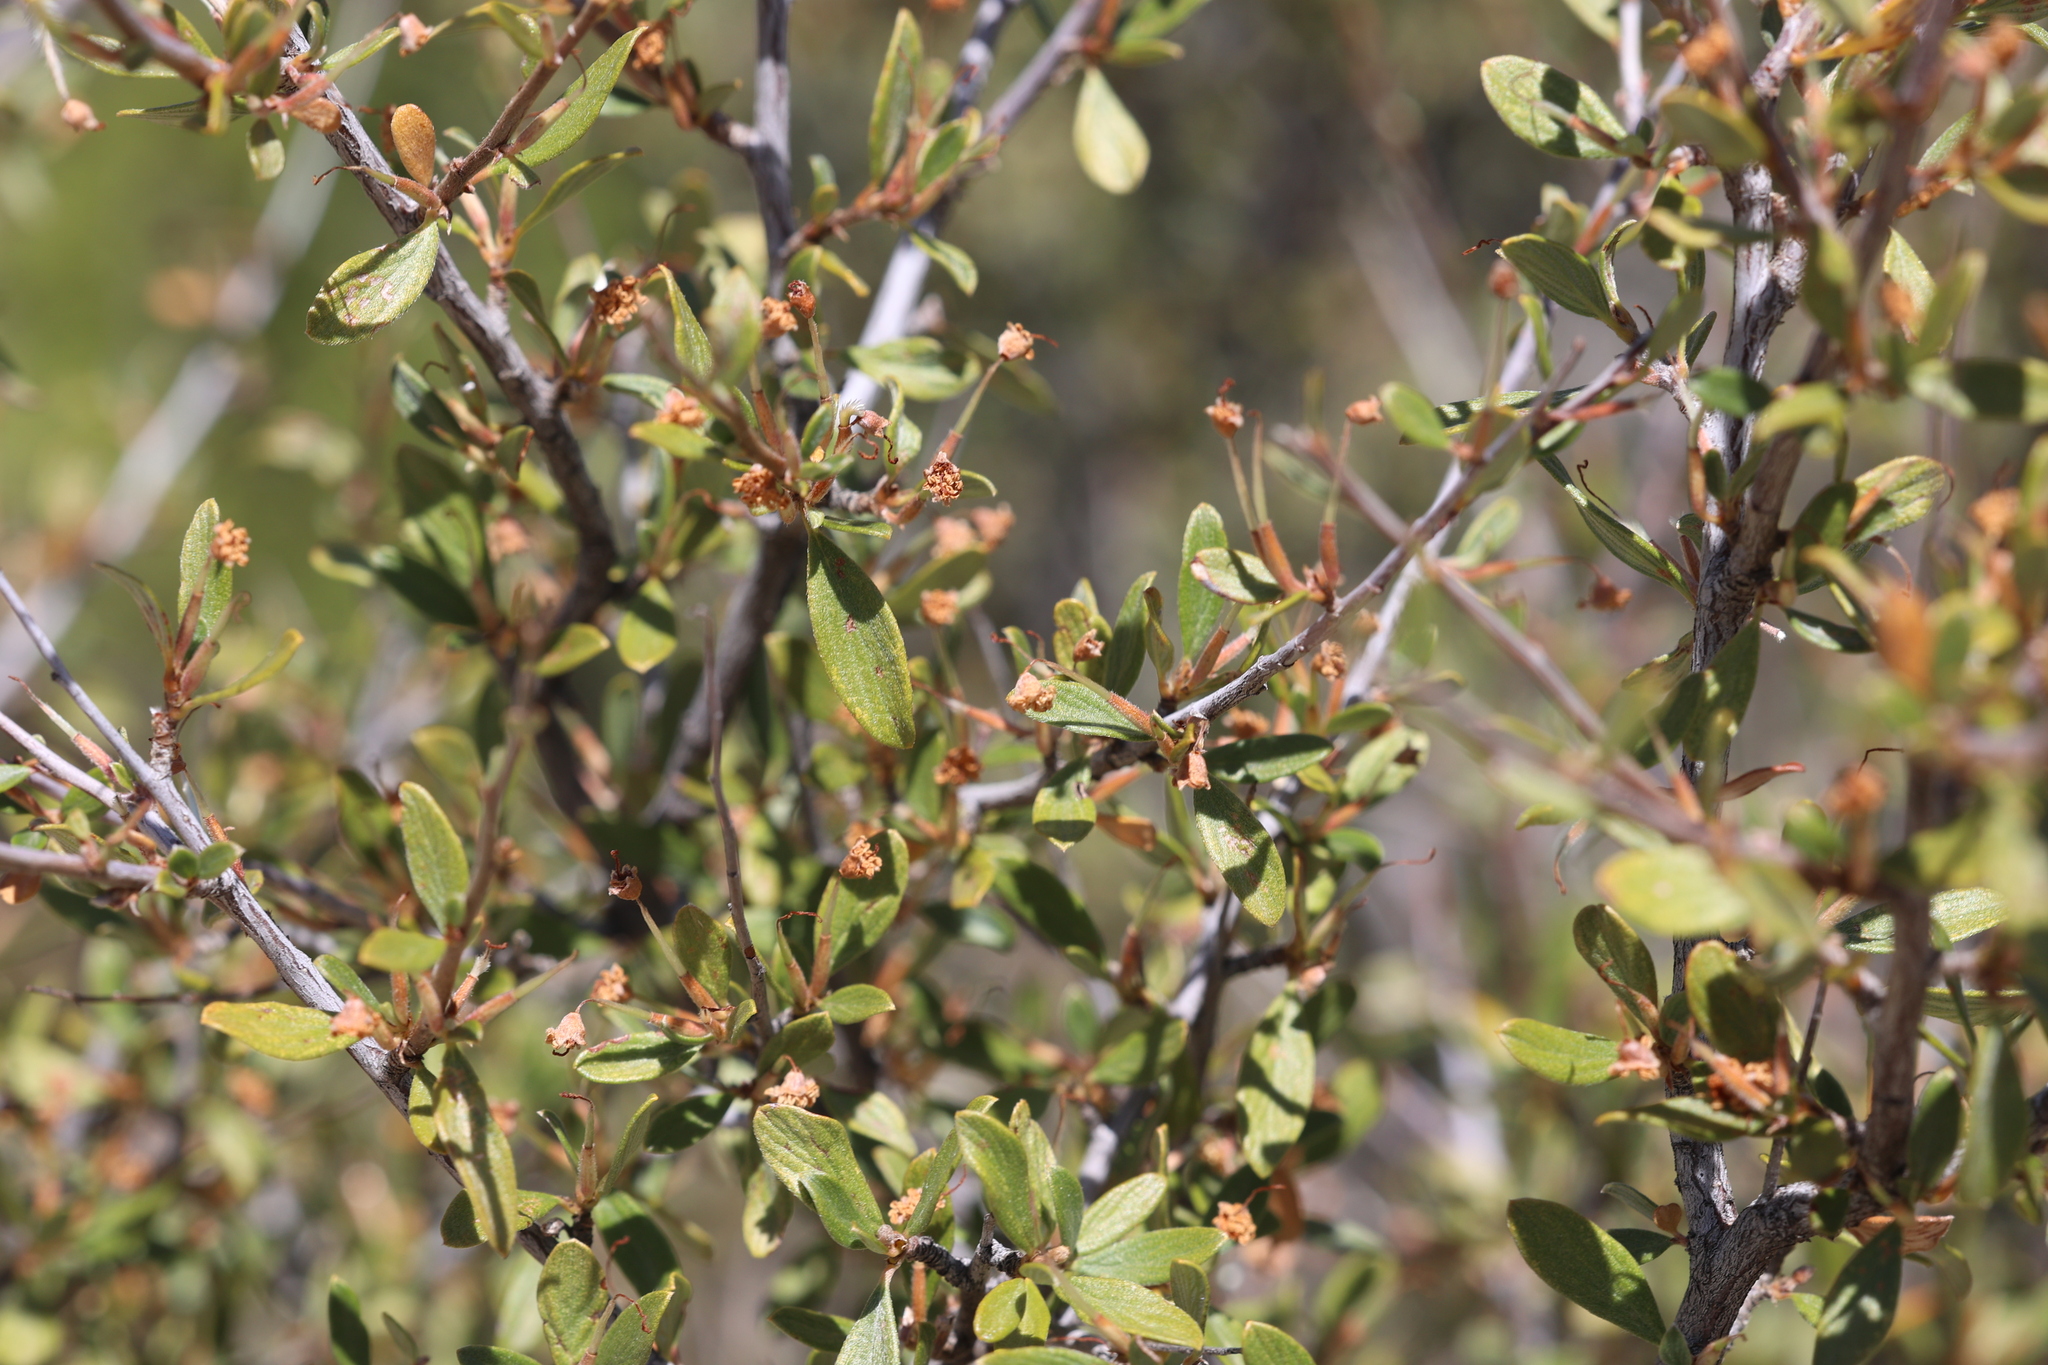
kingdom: Plantae
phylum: Tracheophyta
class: Magnoliopsida
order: Rosales
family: Rosaceae
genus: Cercocarpus
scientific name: Cercocarpus breviflorus
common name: Wright's mountain-mahogany
